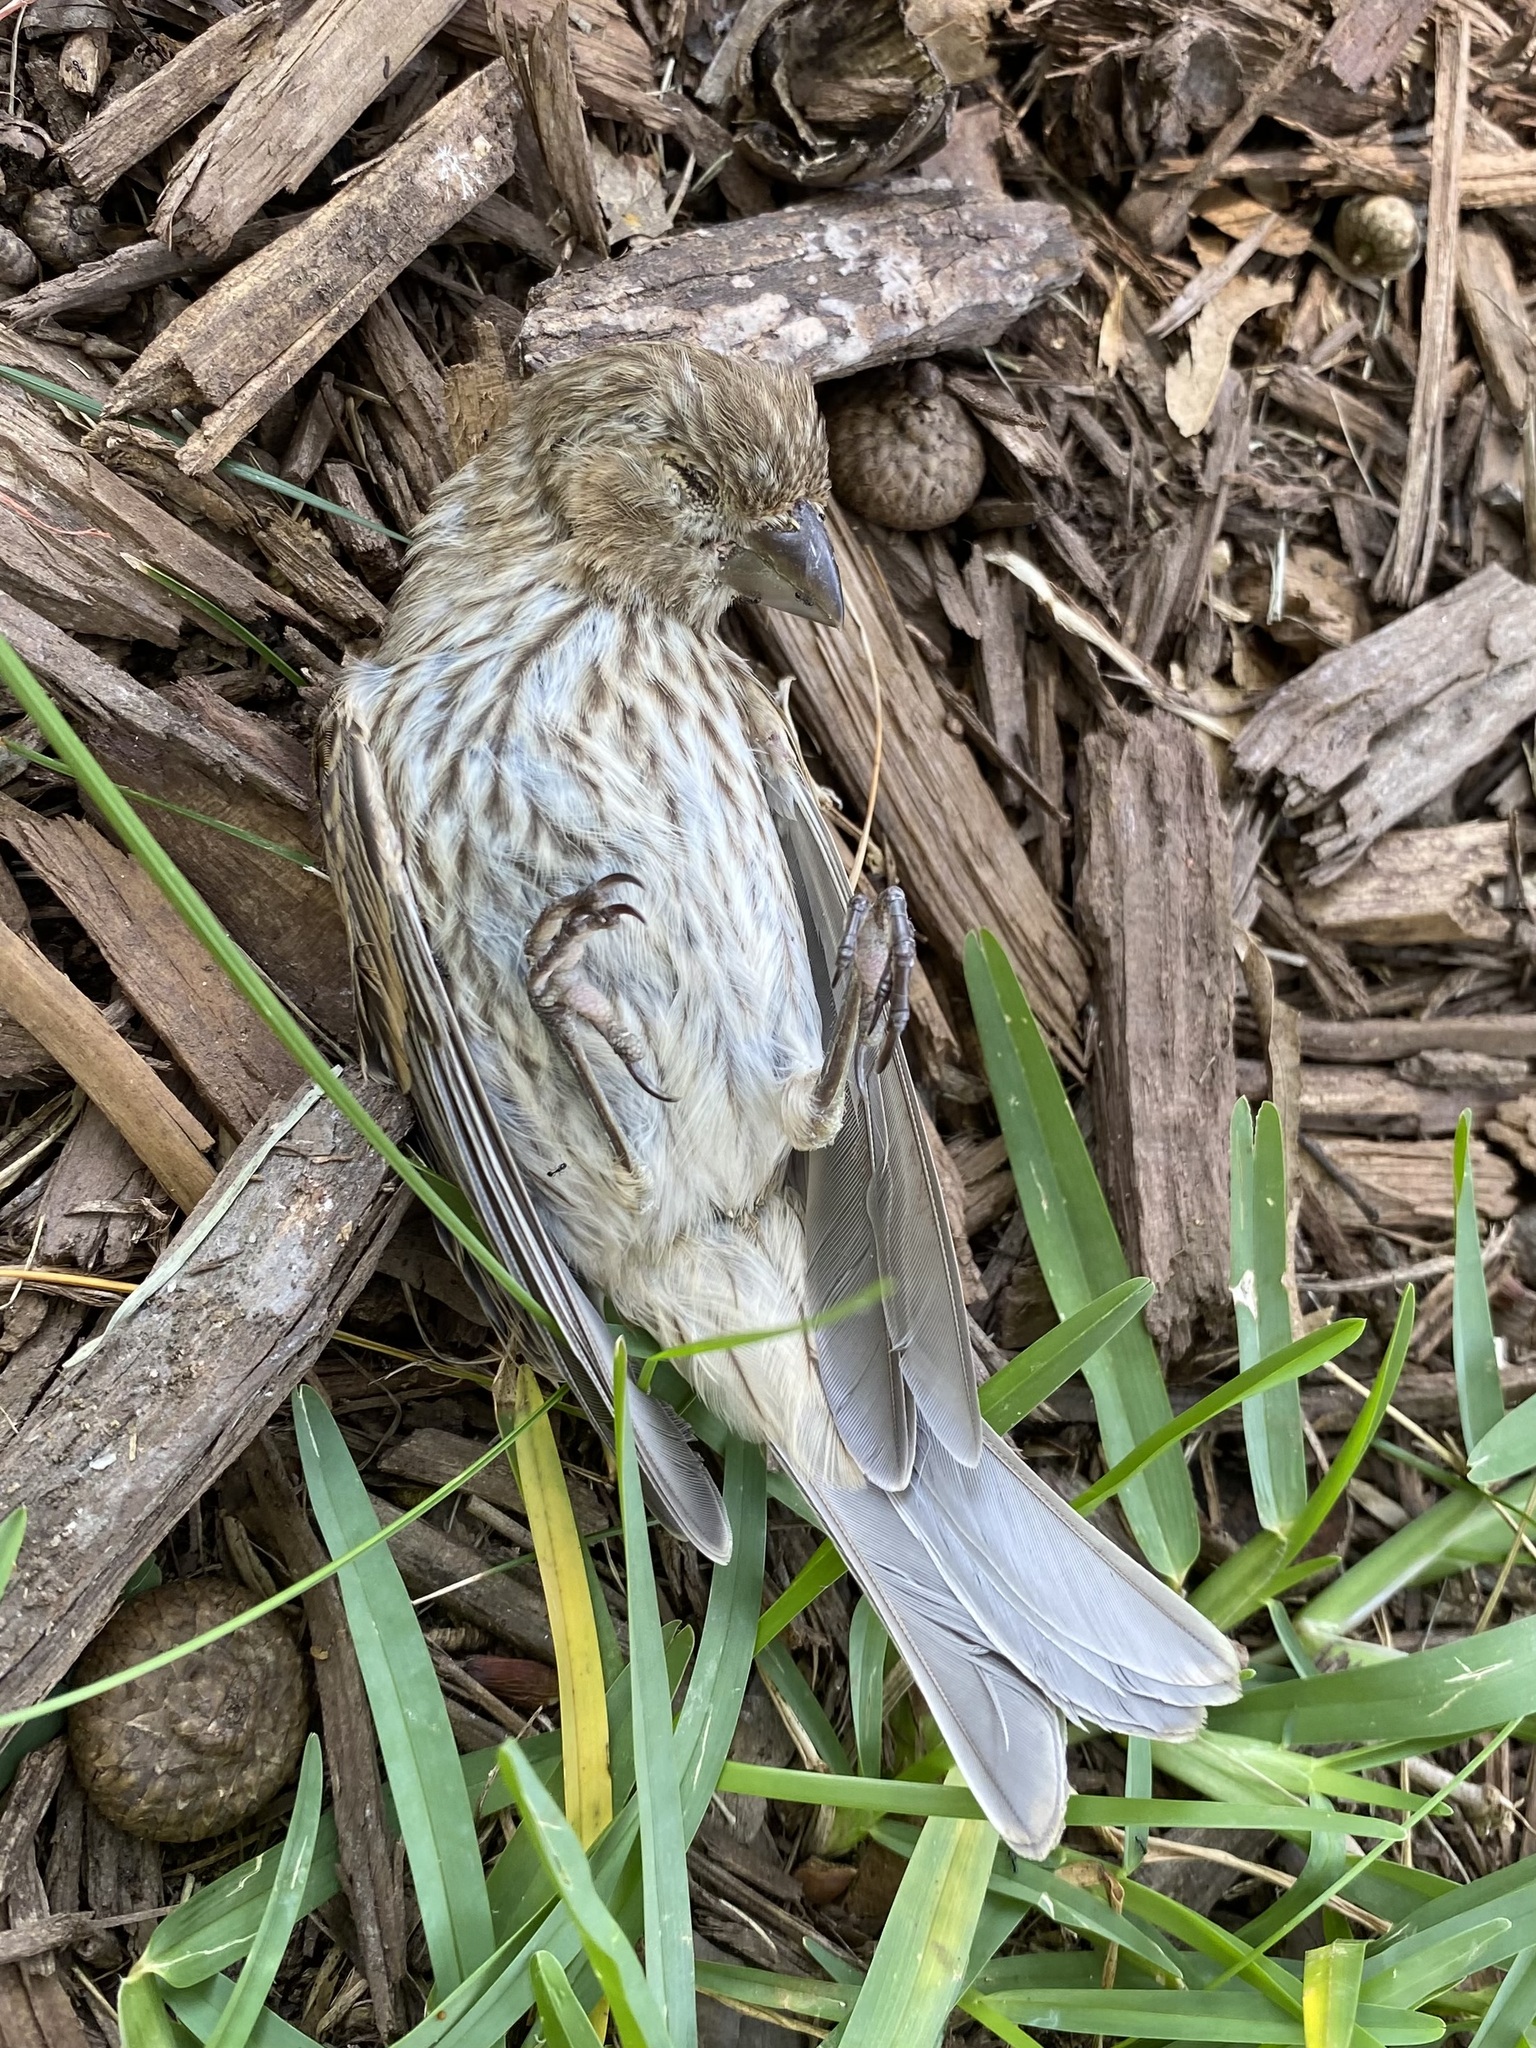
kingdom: Animalia
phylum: Chordata
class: Aves
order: Passeriformes
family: Fringillidae
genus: Haemorhous
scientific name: Haemorhous mexicanus
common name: House finch
